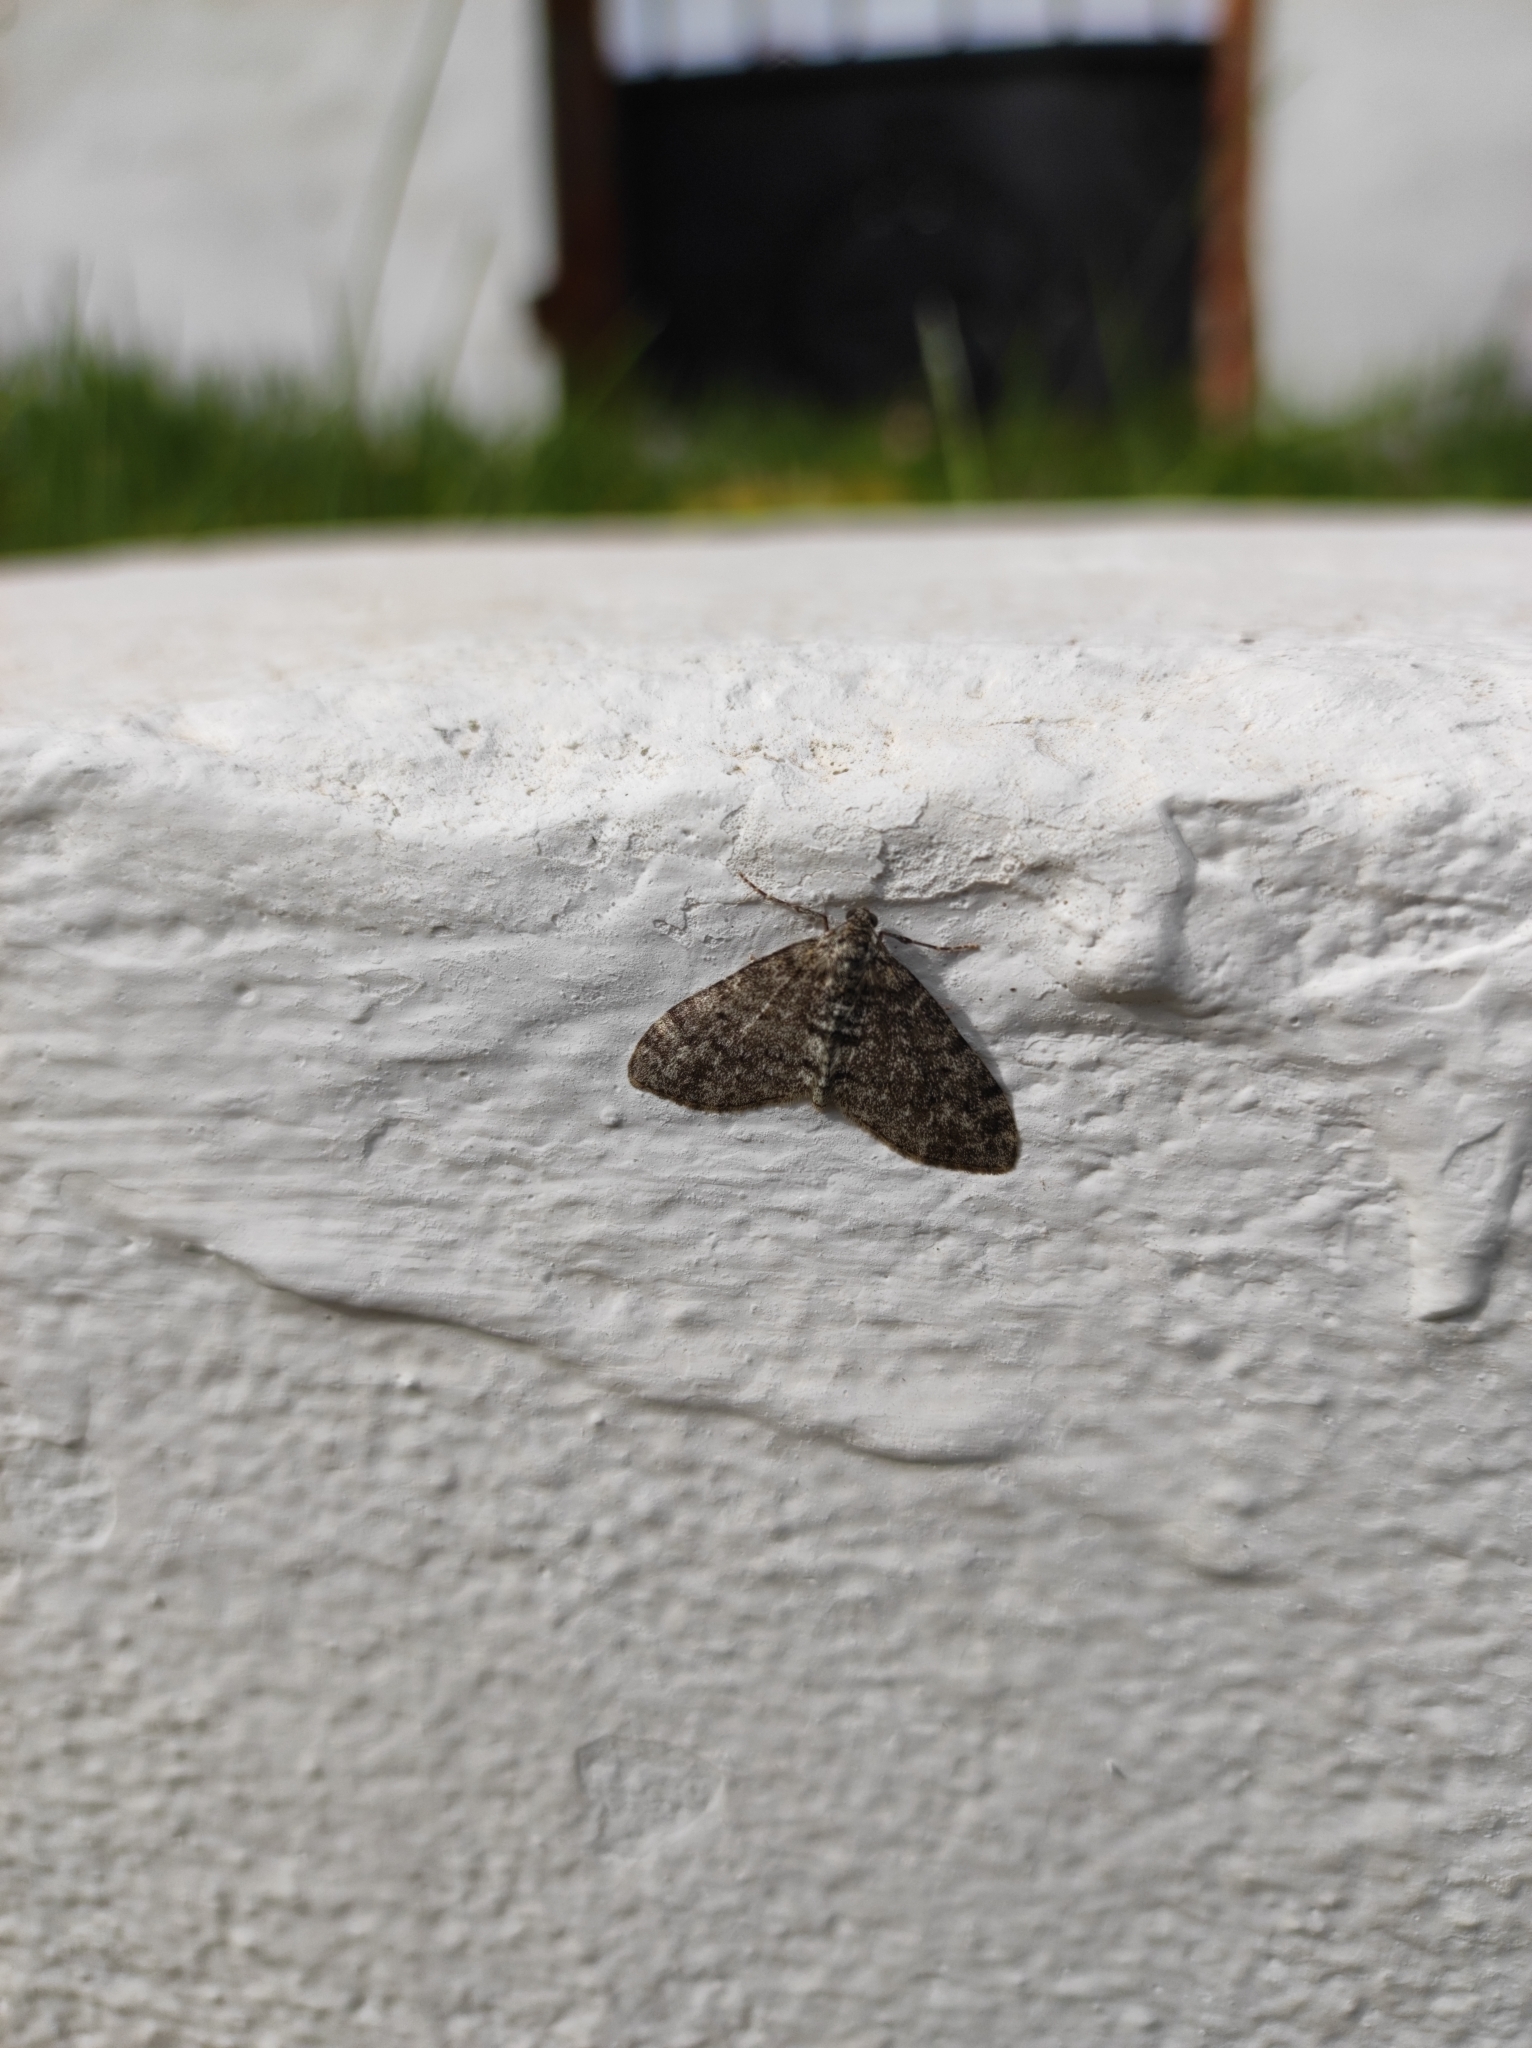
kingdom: Animalia
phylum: Arthropoda
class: Insecta
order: Lepidoptera
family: Geometridae
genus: Lobophora
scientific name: Lobophora halterata
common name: Seraphim
